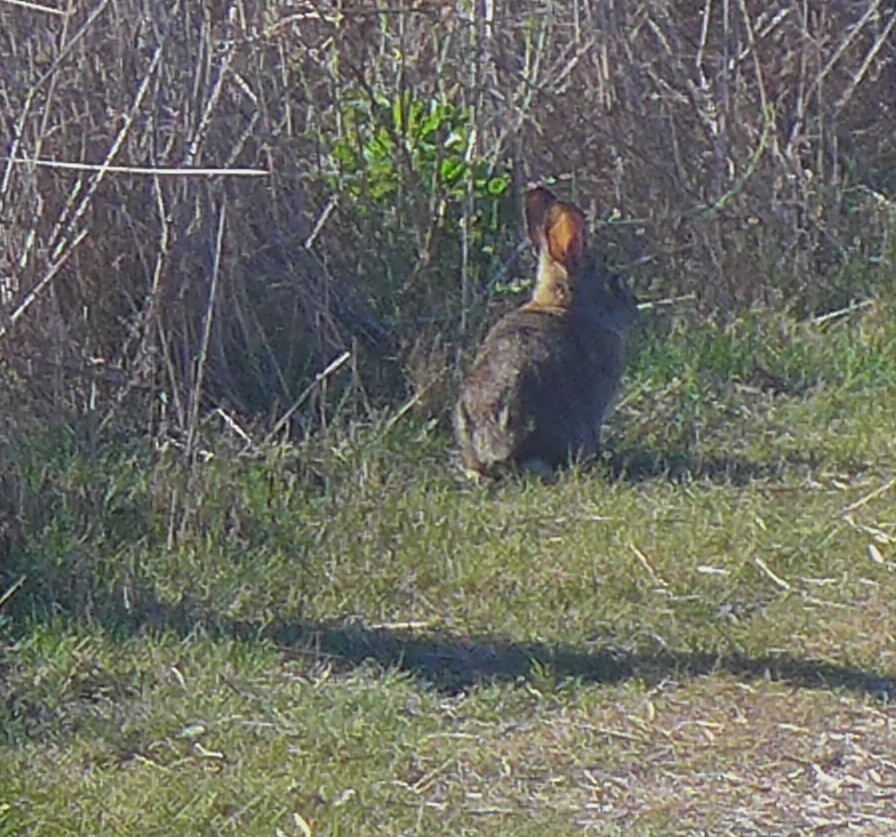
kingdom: Animalia
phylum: Chordata
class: Mammalia
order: Lagomorpha
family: Leporidae
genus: Sylvilagus
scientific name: Sylvilagus bachmani
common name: Brush rabbit
